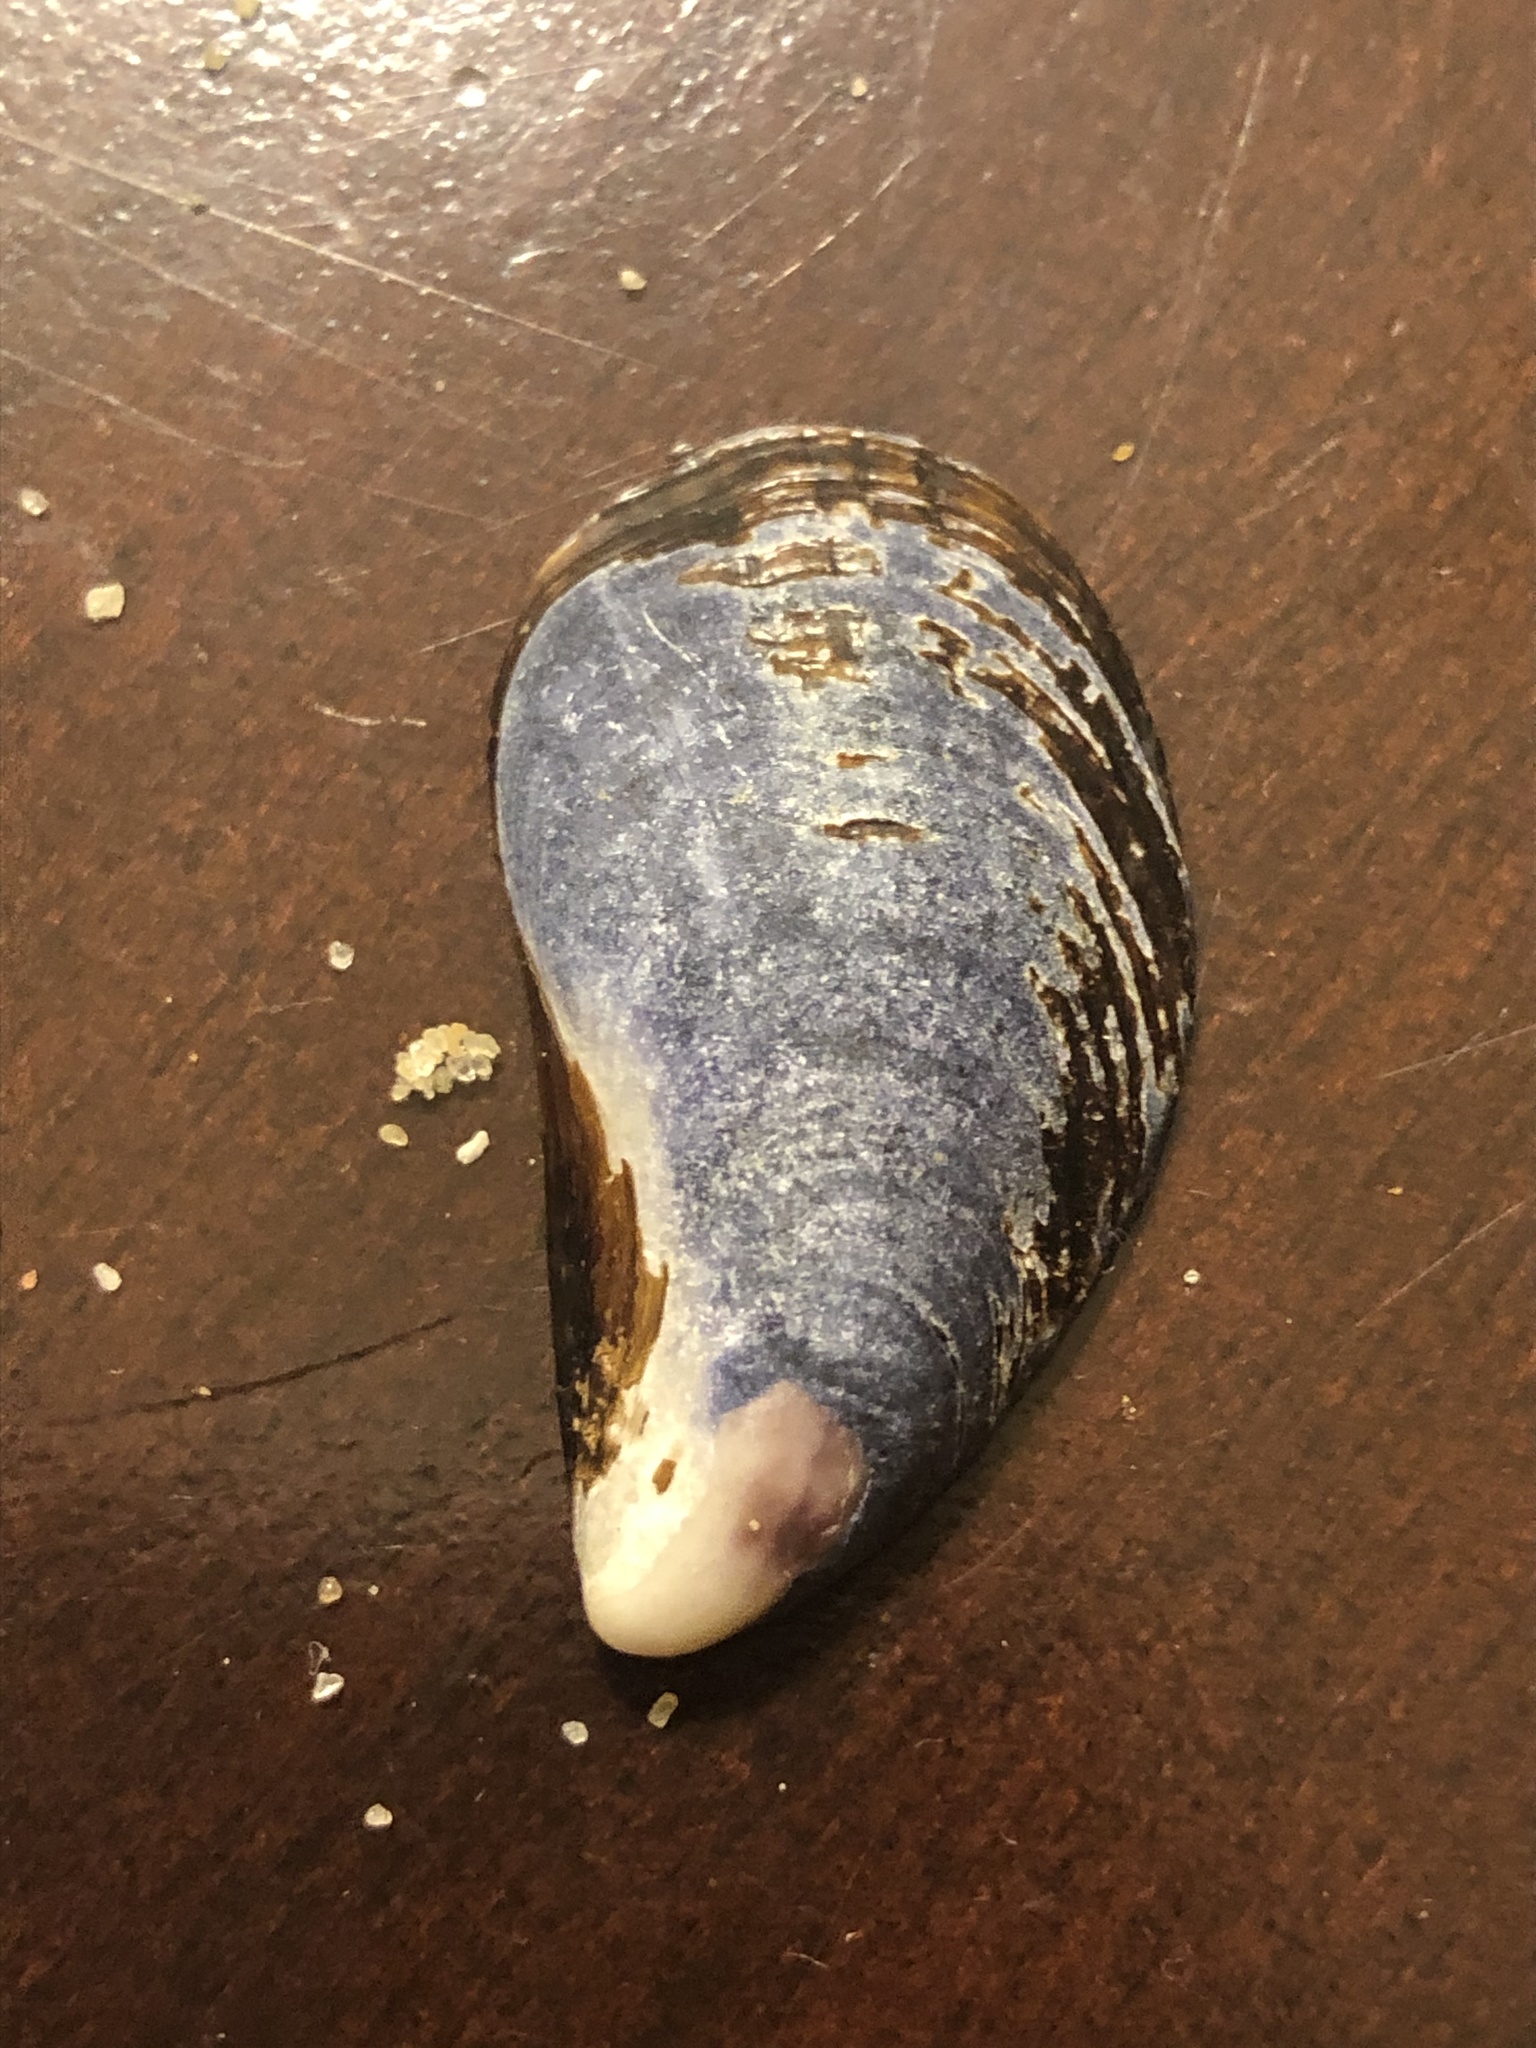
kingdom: Animalia
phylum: Mollusca
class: Bivalvia
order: Mytilida
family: Mytilidae
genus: Mytilus
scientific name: Mytilus californianus
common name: California mussel
